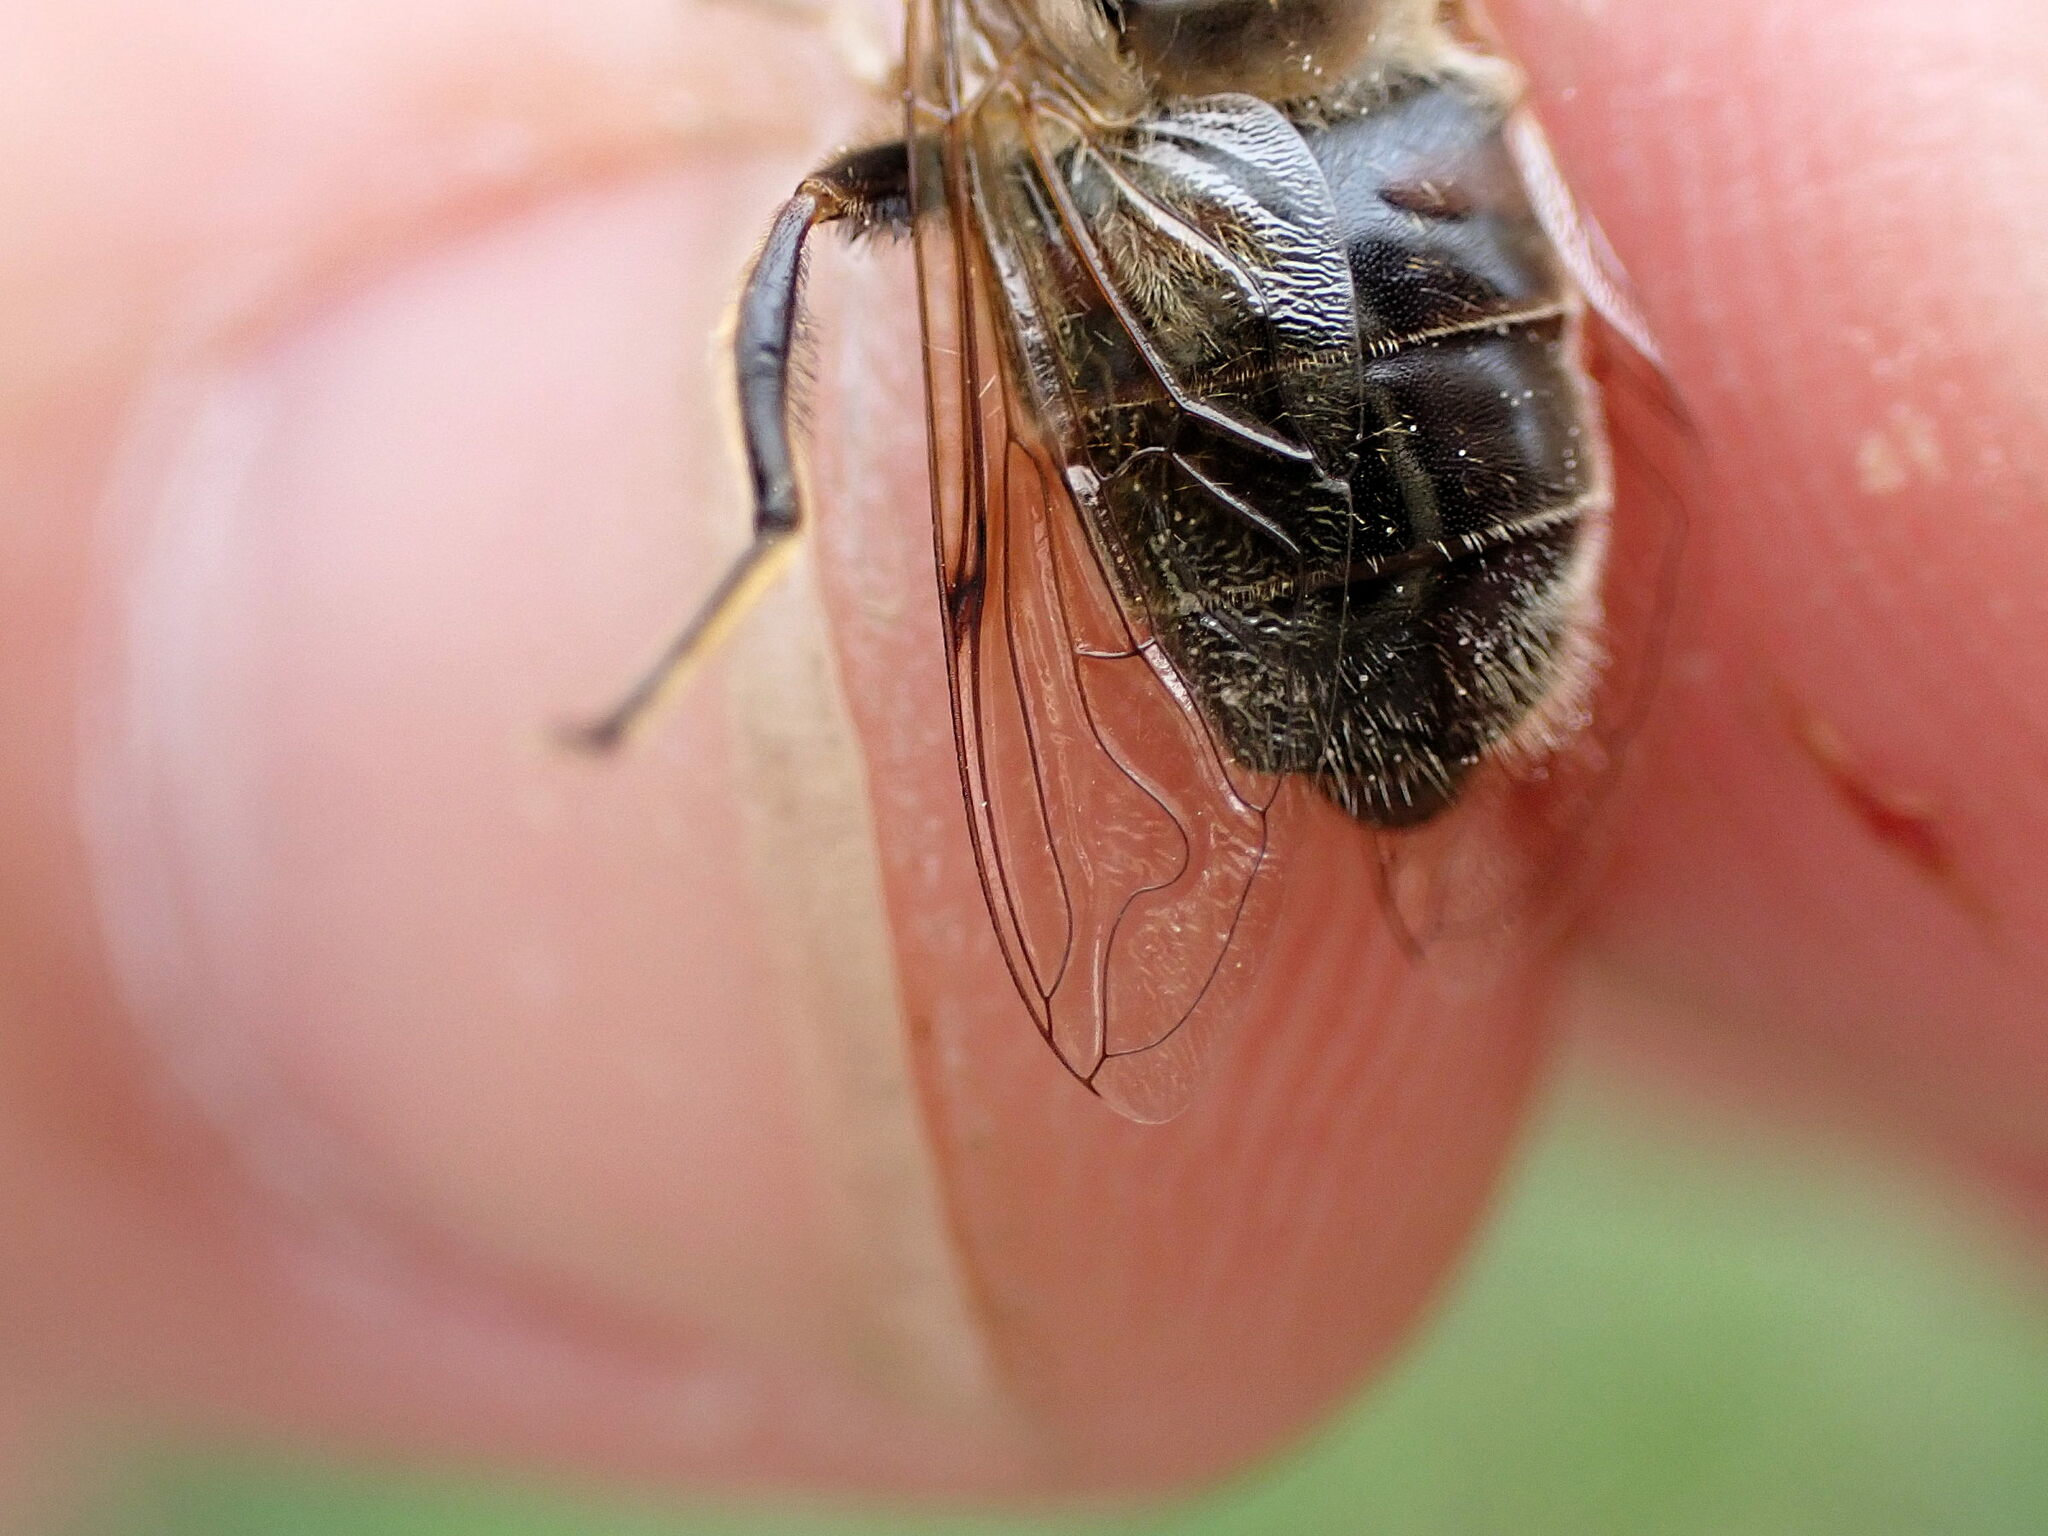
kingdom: Animalia
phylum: Arthropoda
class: Insecta
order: Diptera
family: Syrphidae
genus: Eristalis
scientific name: Eristalis tenax
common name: Drone fly
